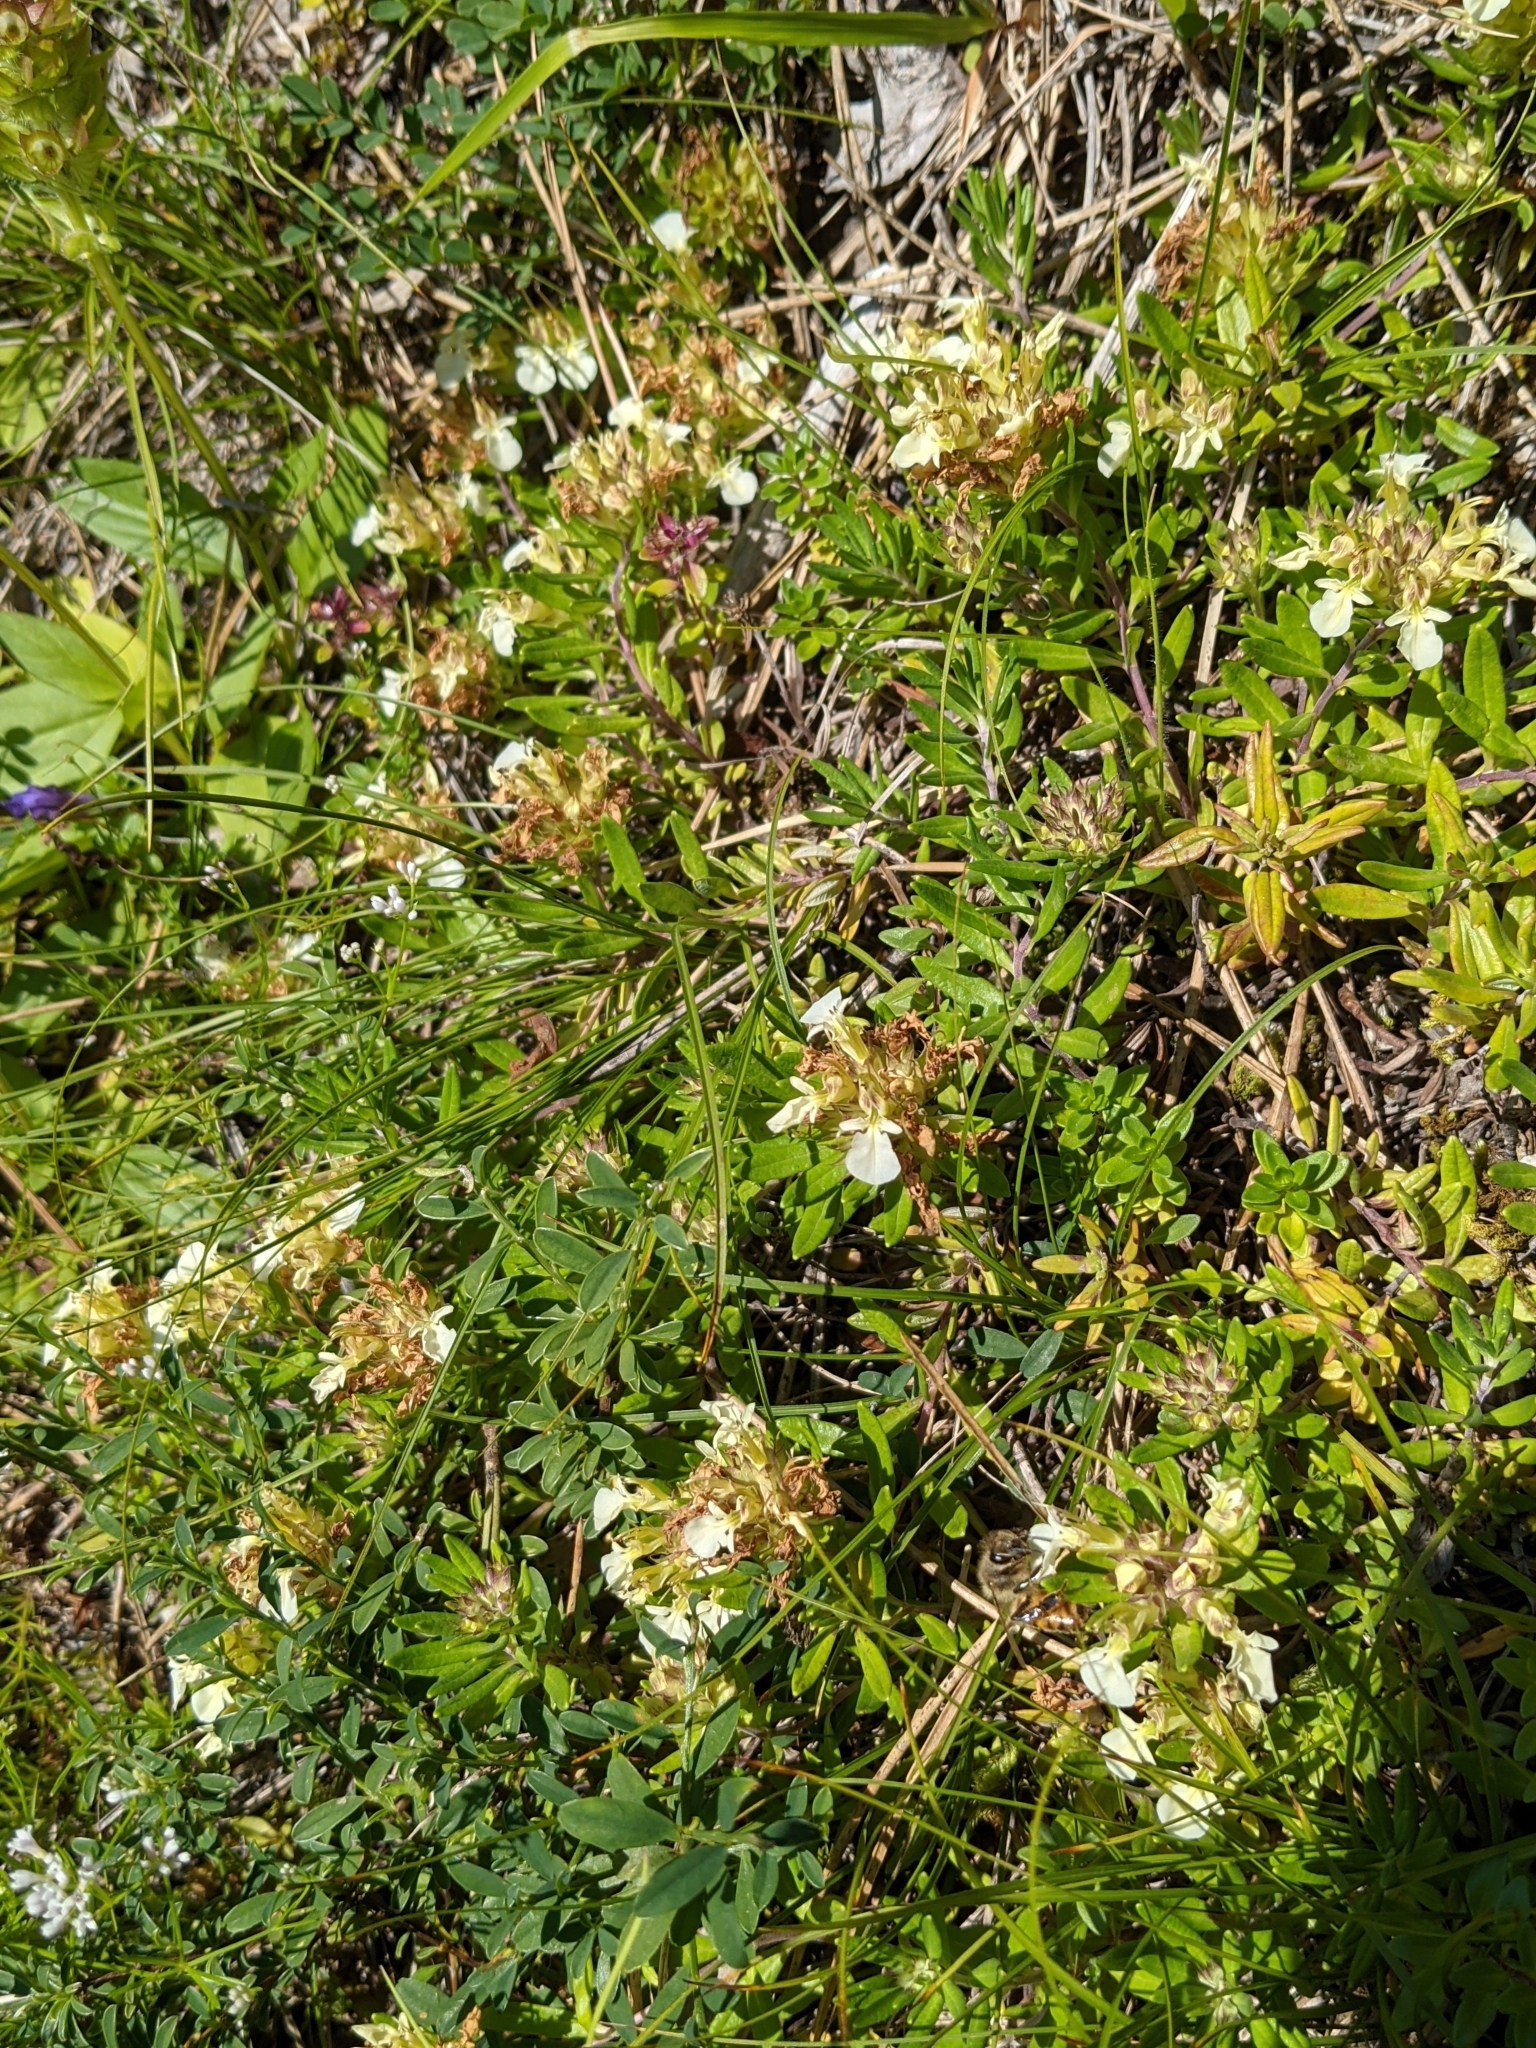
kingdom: Plantae
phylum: Tracheophyta
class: Magnoliopsida
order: Lamiales
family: Lamiaceae
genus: Teucrium
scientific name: Teucrium montanum
